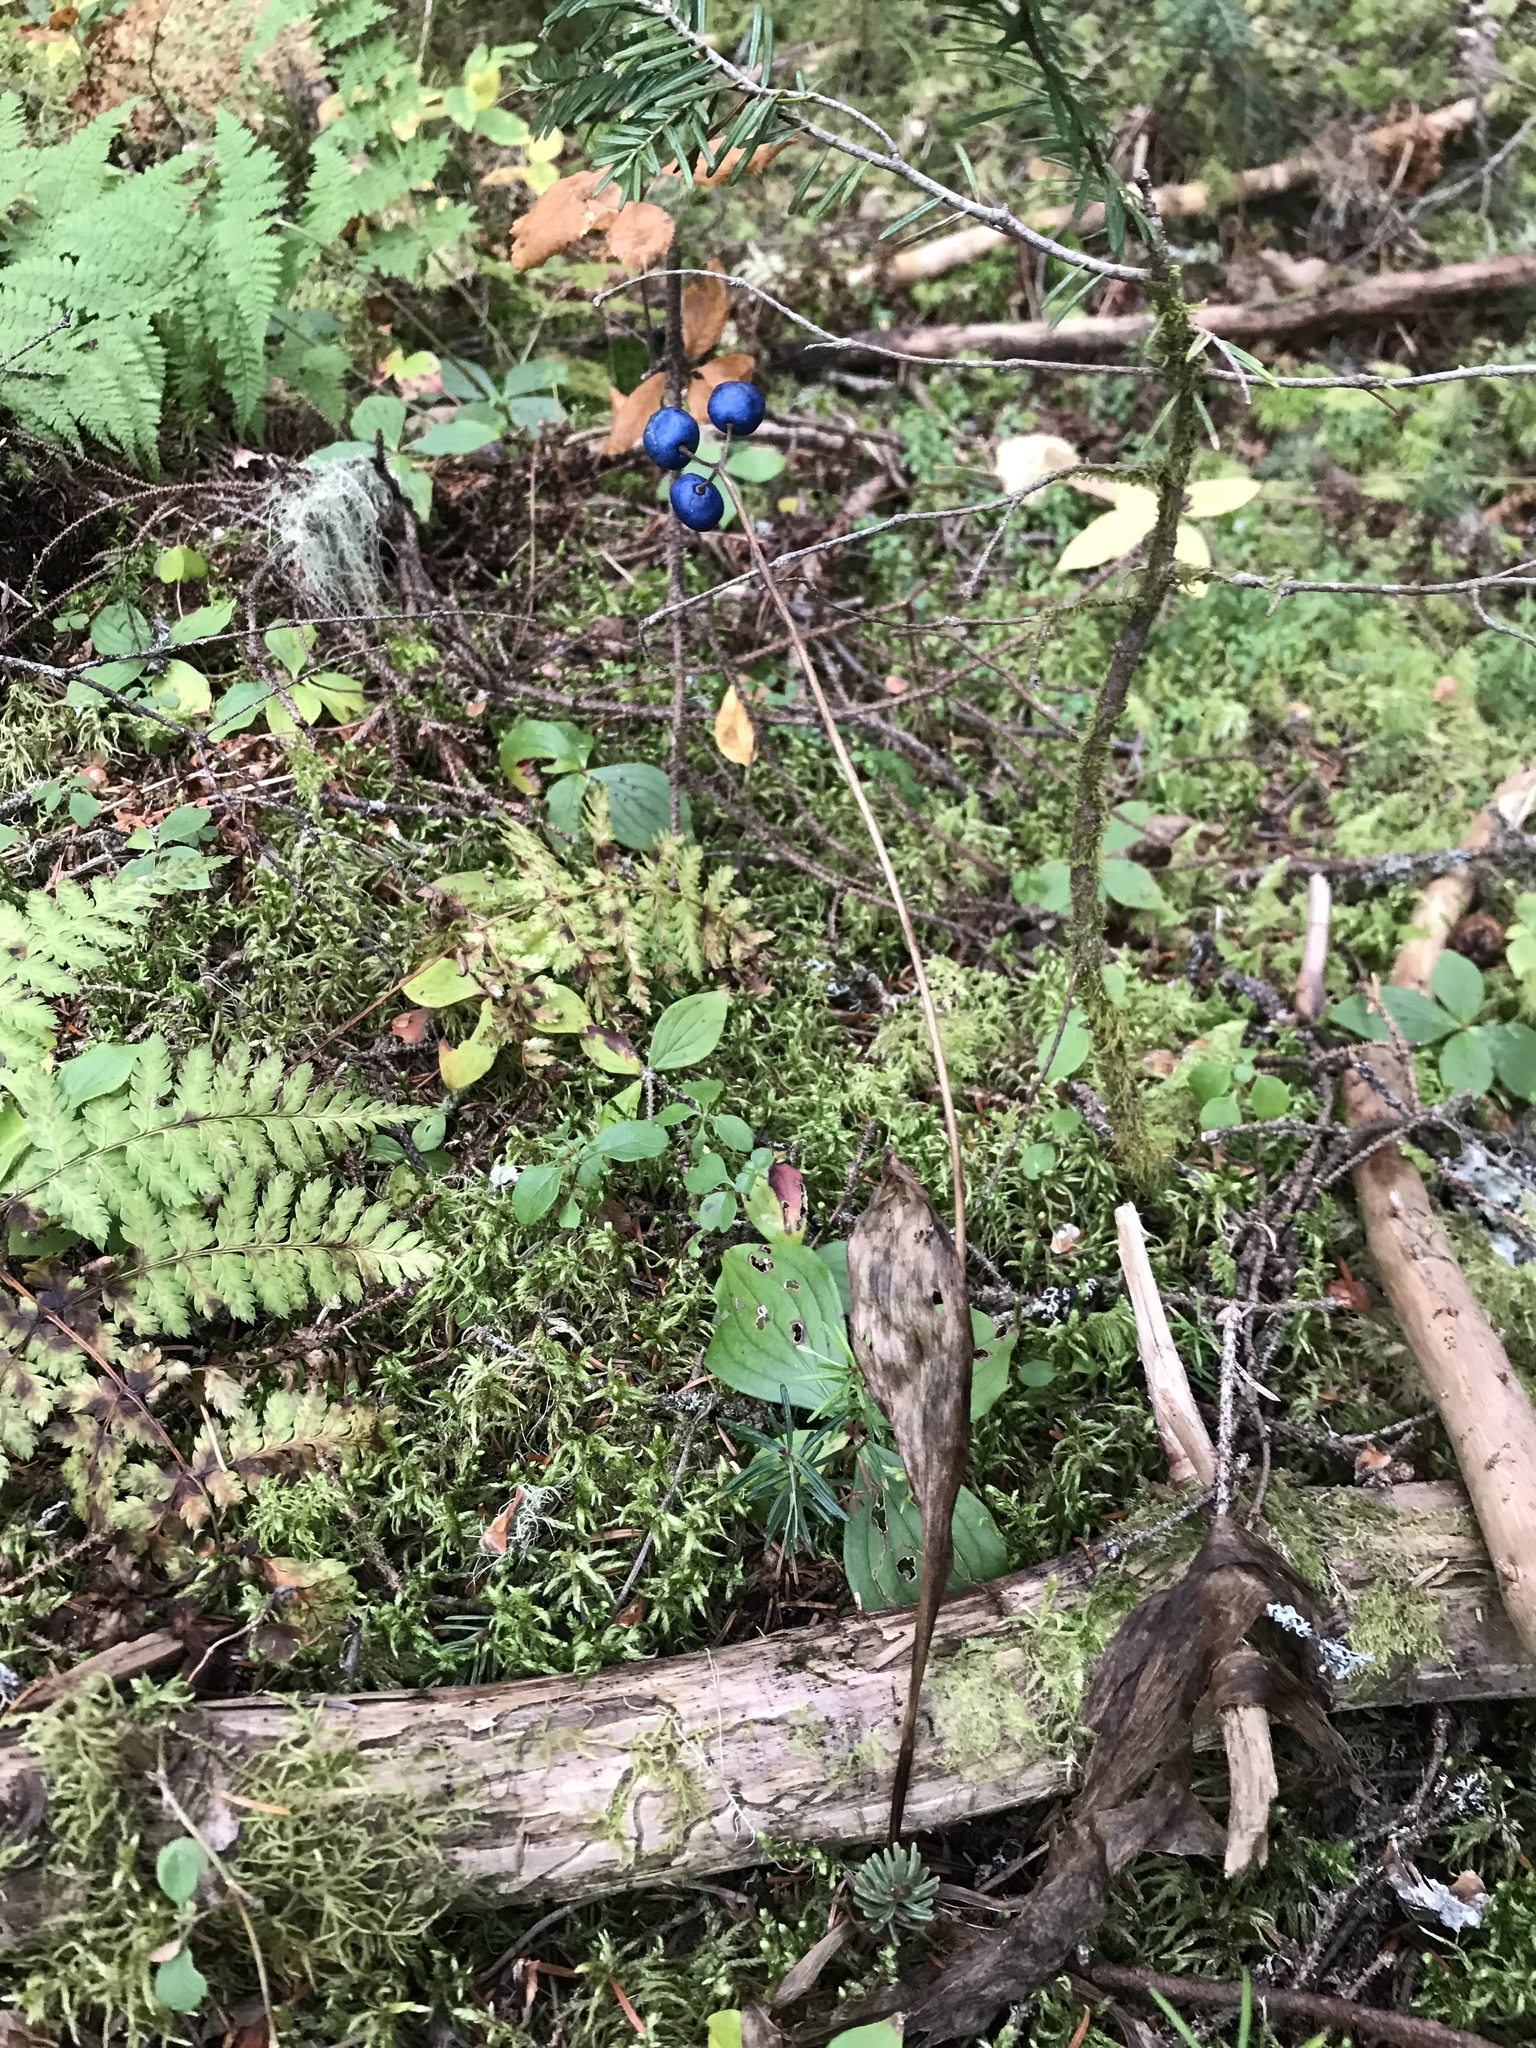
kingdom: Plantae
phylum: Tracheophyta
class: Liliopsida
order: Liliales
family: Liliaceae
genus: Clintonia
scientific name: Clintonia borealis
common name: Yellow clintonia
